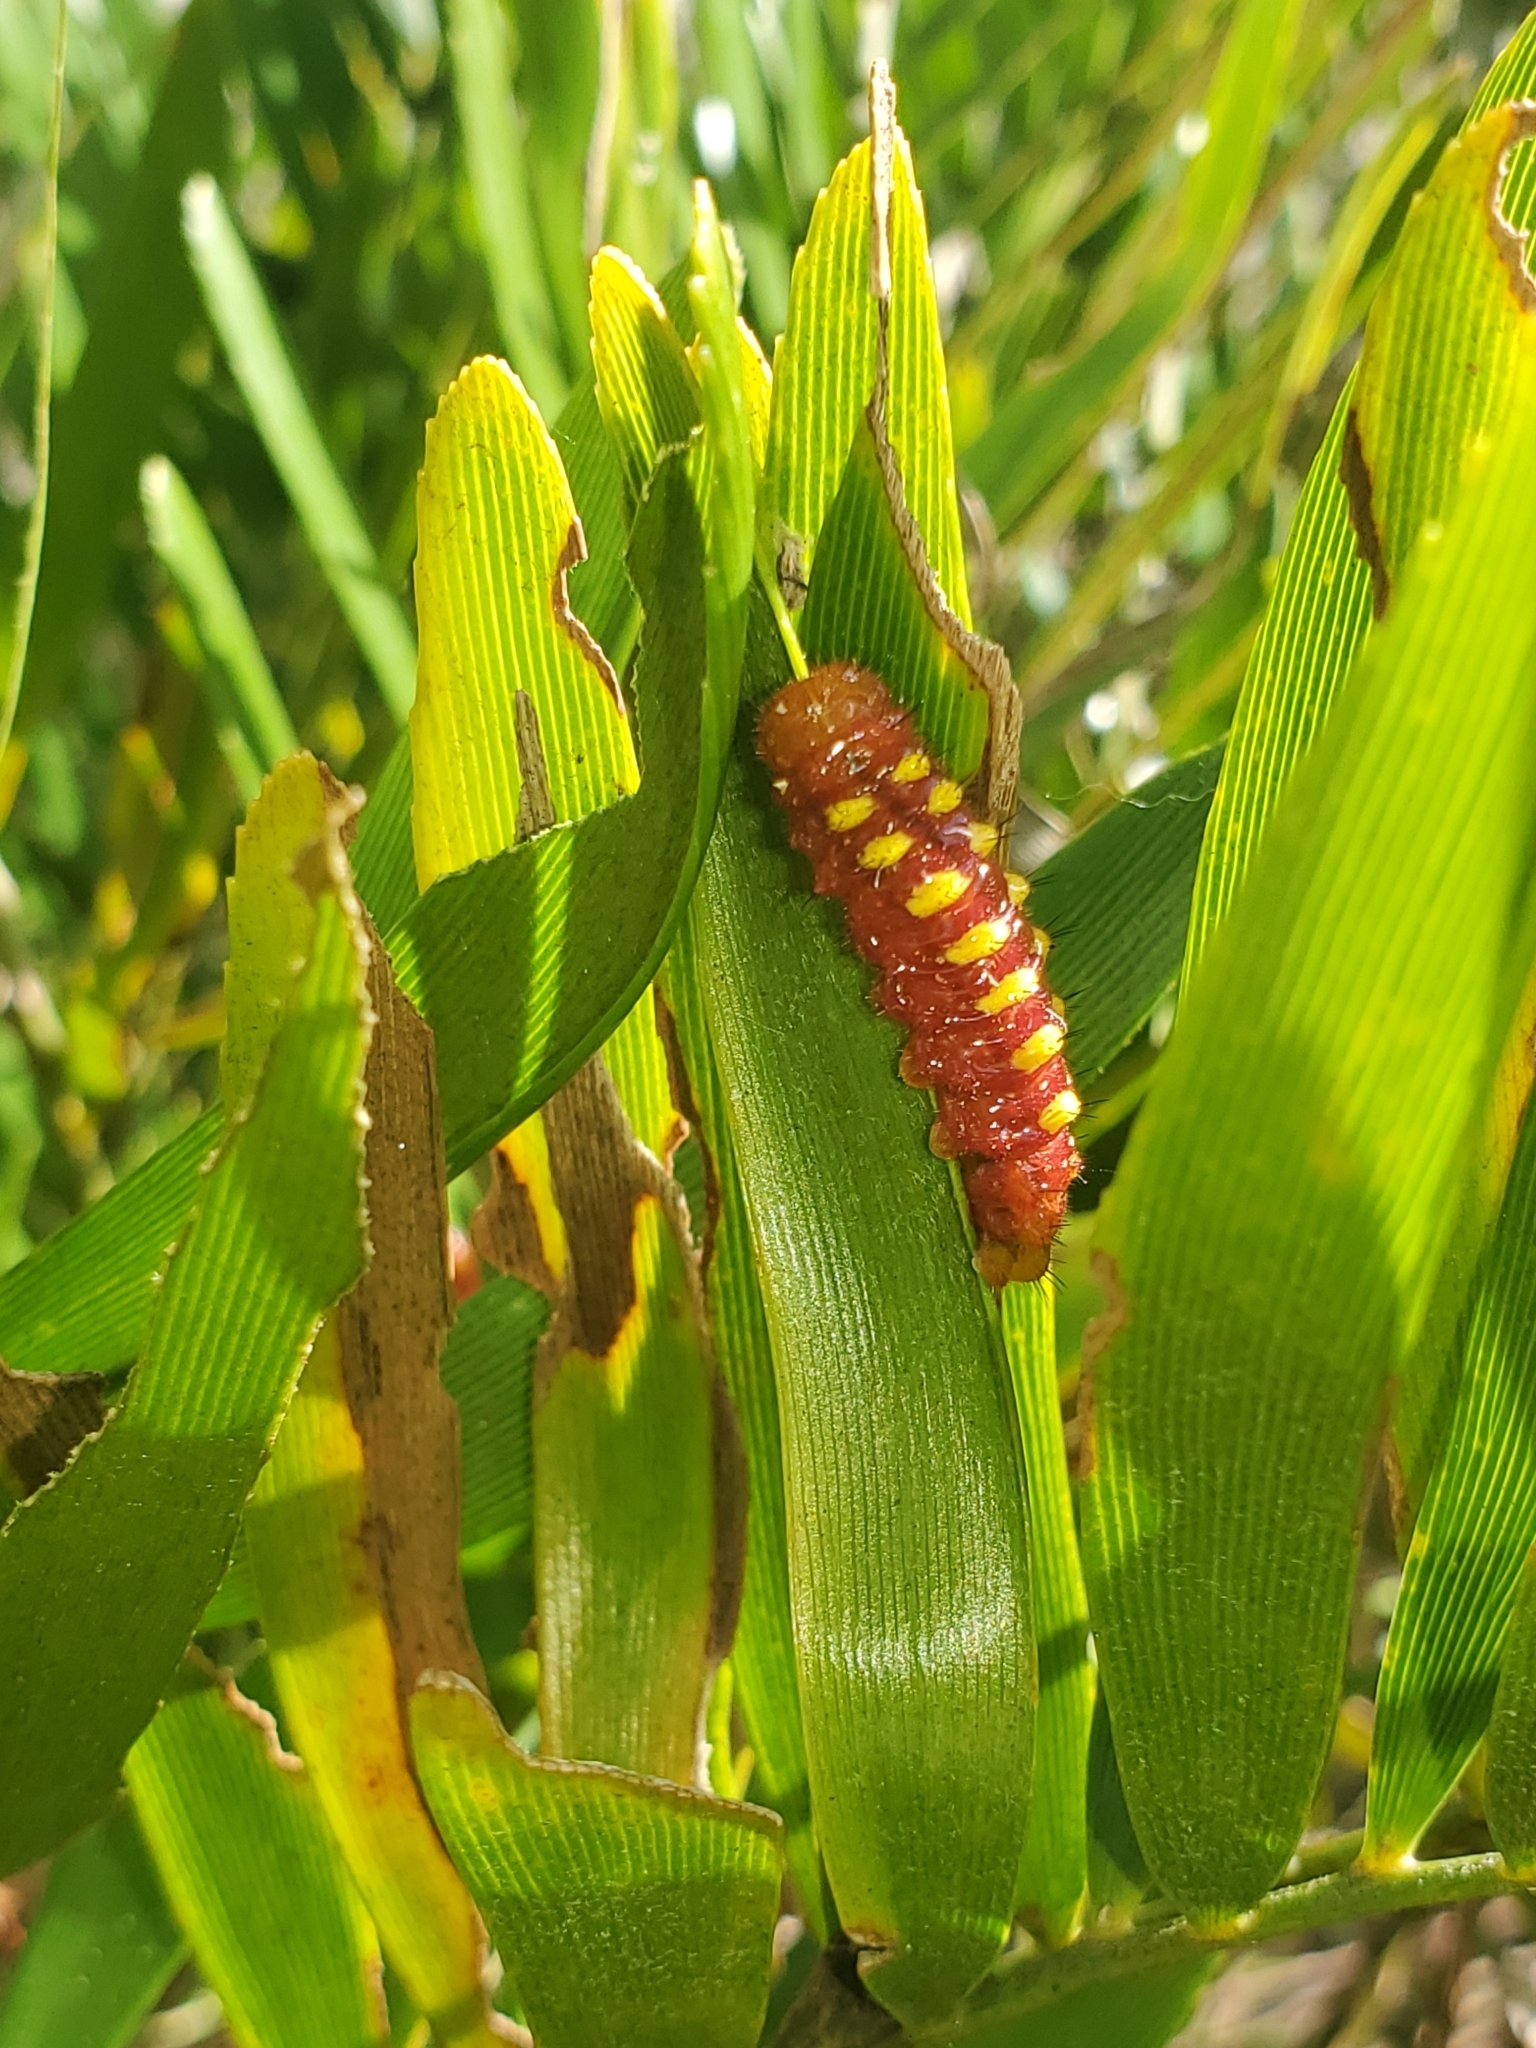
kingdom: Animalia
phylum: Arthropoda
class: Insecta
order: Lepidoptera
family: Lycaenidae
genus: Eumaeus
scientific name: Eumaeus atala
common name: Atala
